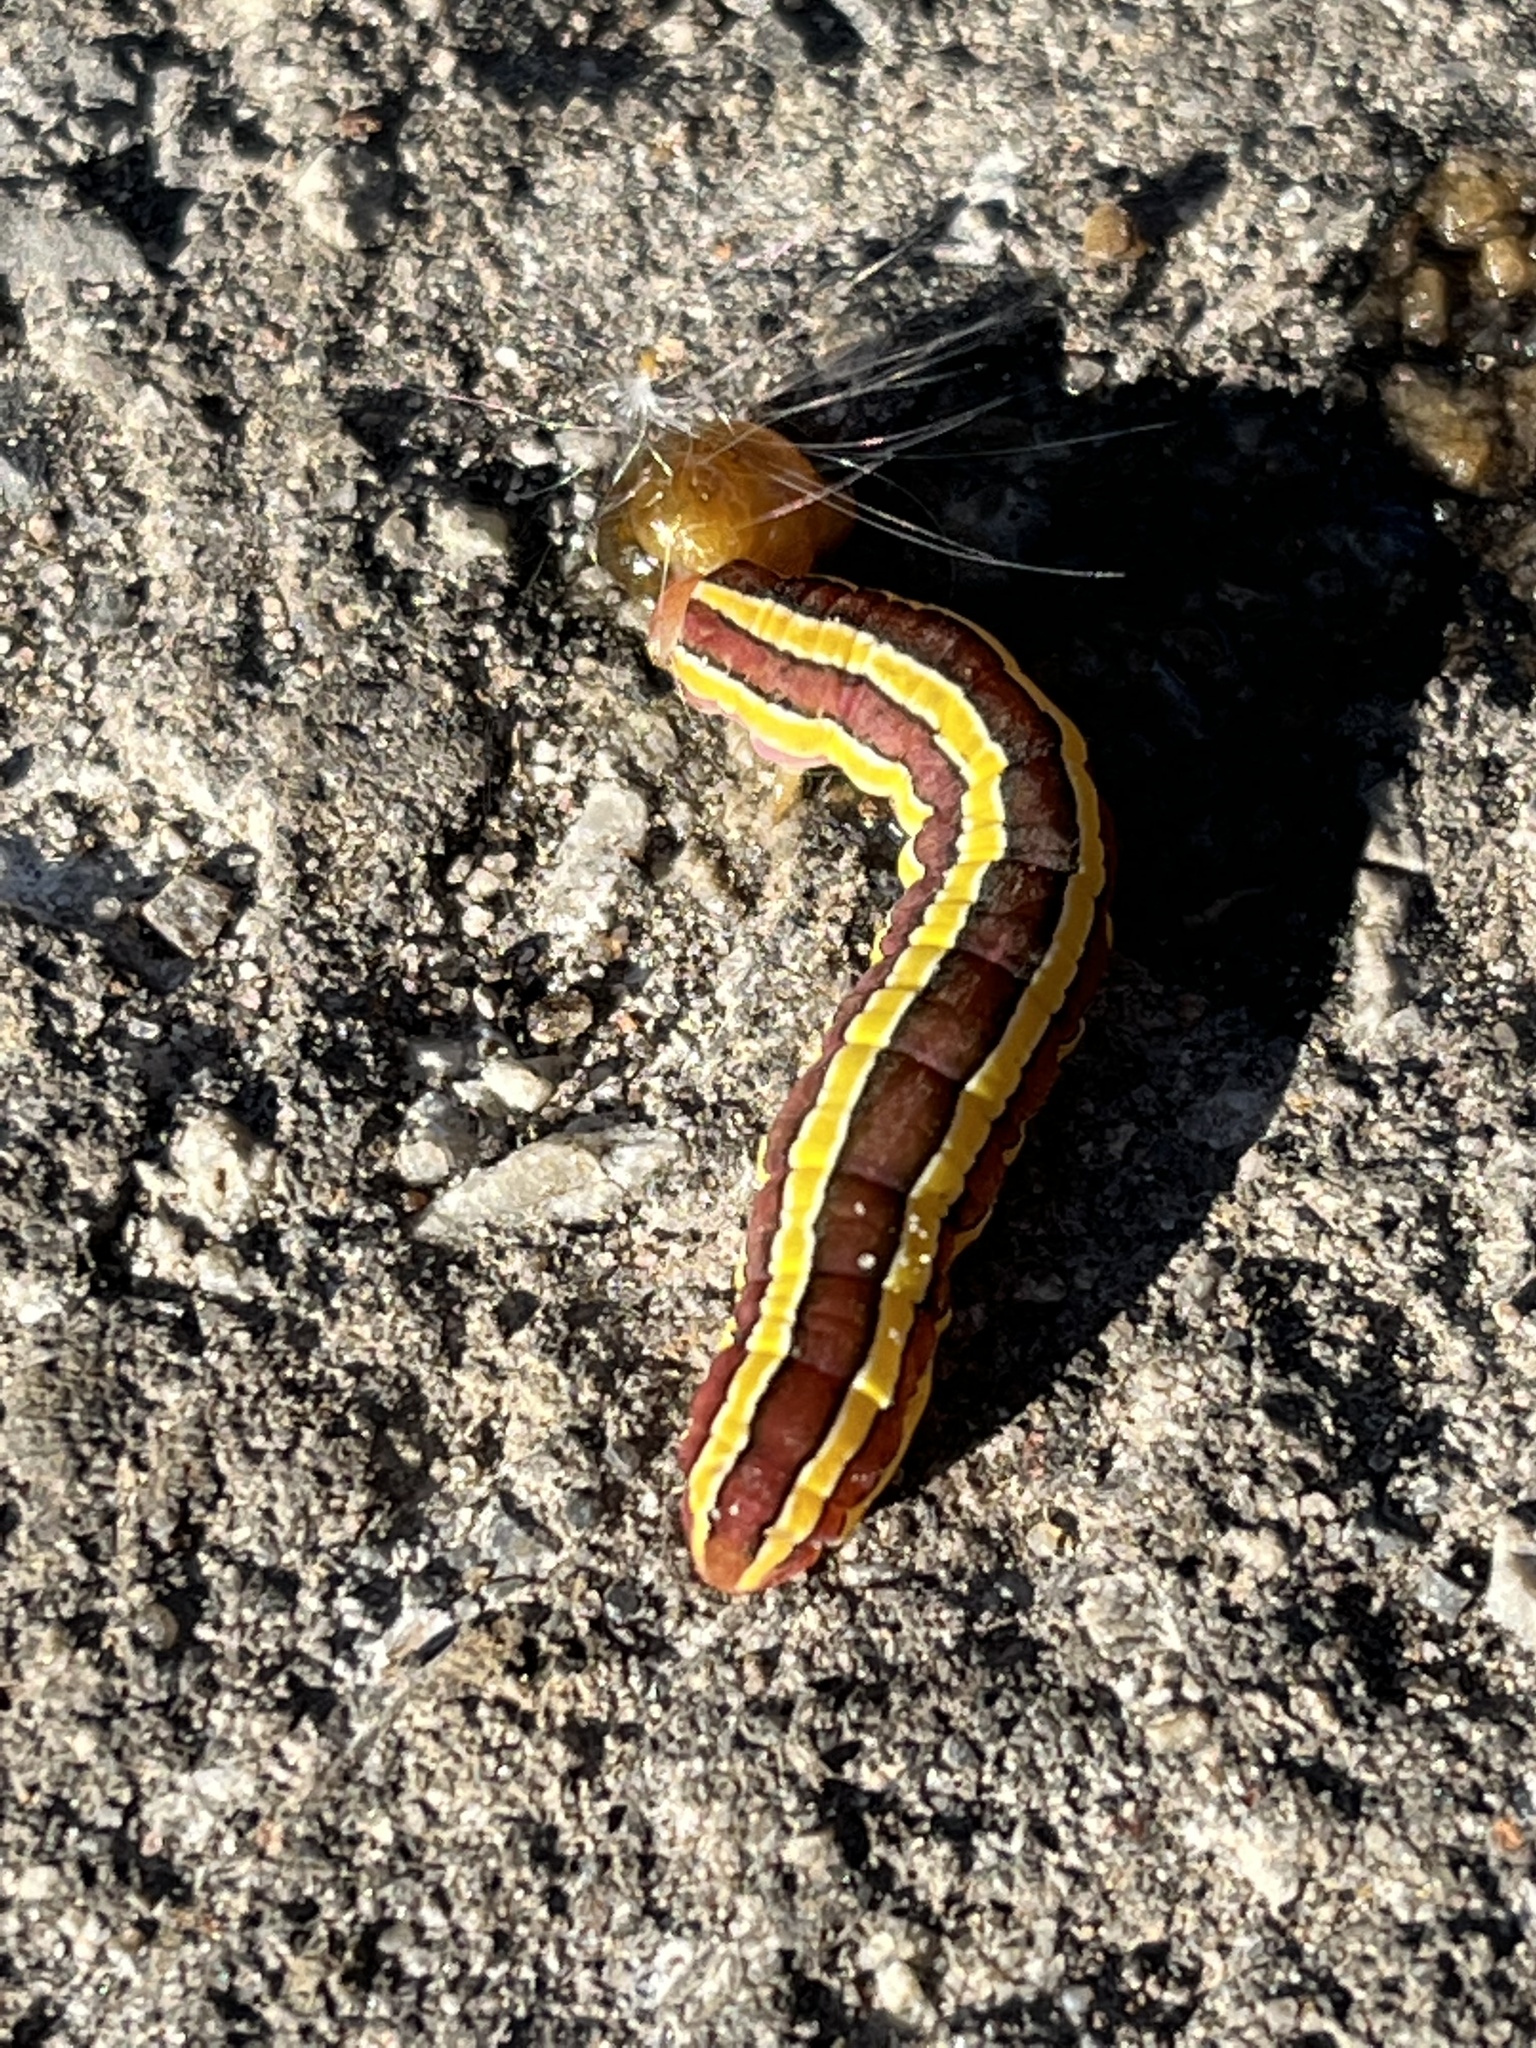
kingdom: Animalia
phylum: Arthropoda
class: Insecta
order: Lepidoptera
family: Noctuidae
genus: Melanchra
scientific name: Melanchra assimilis
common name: Black arches
